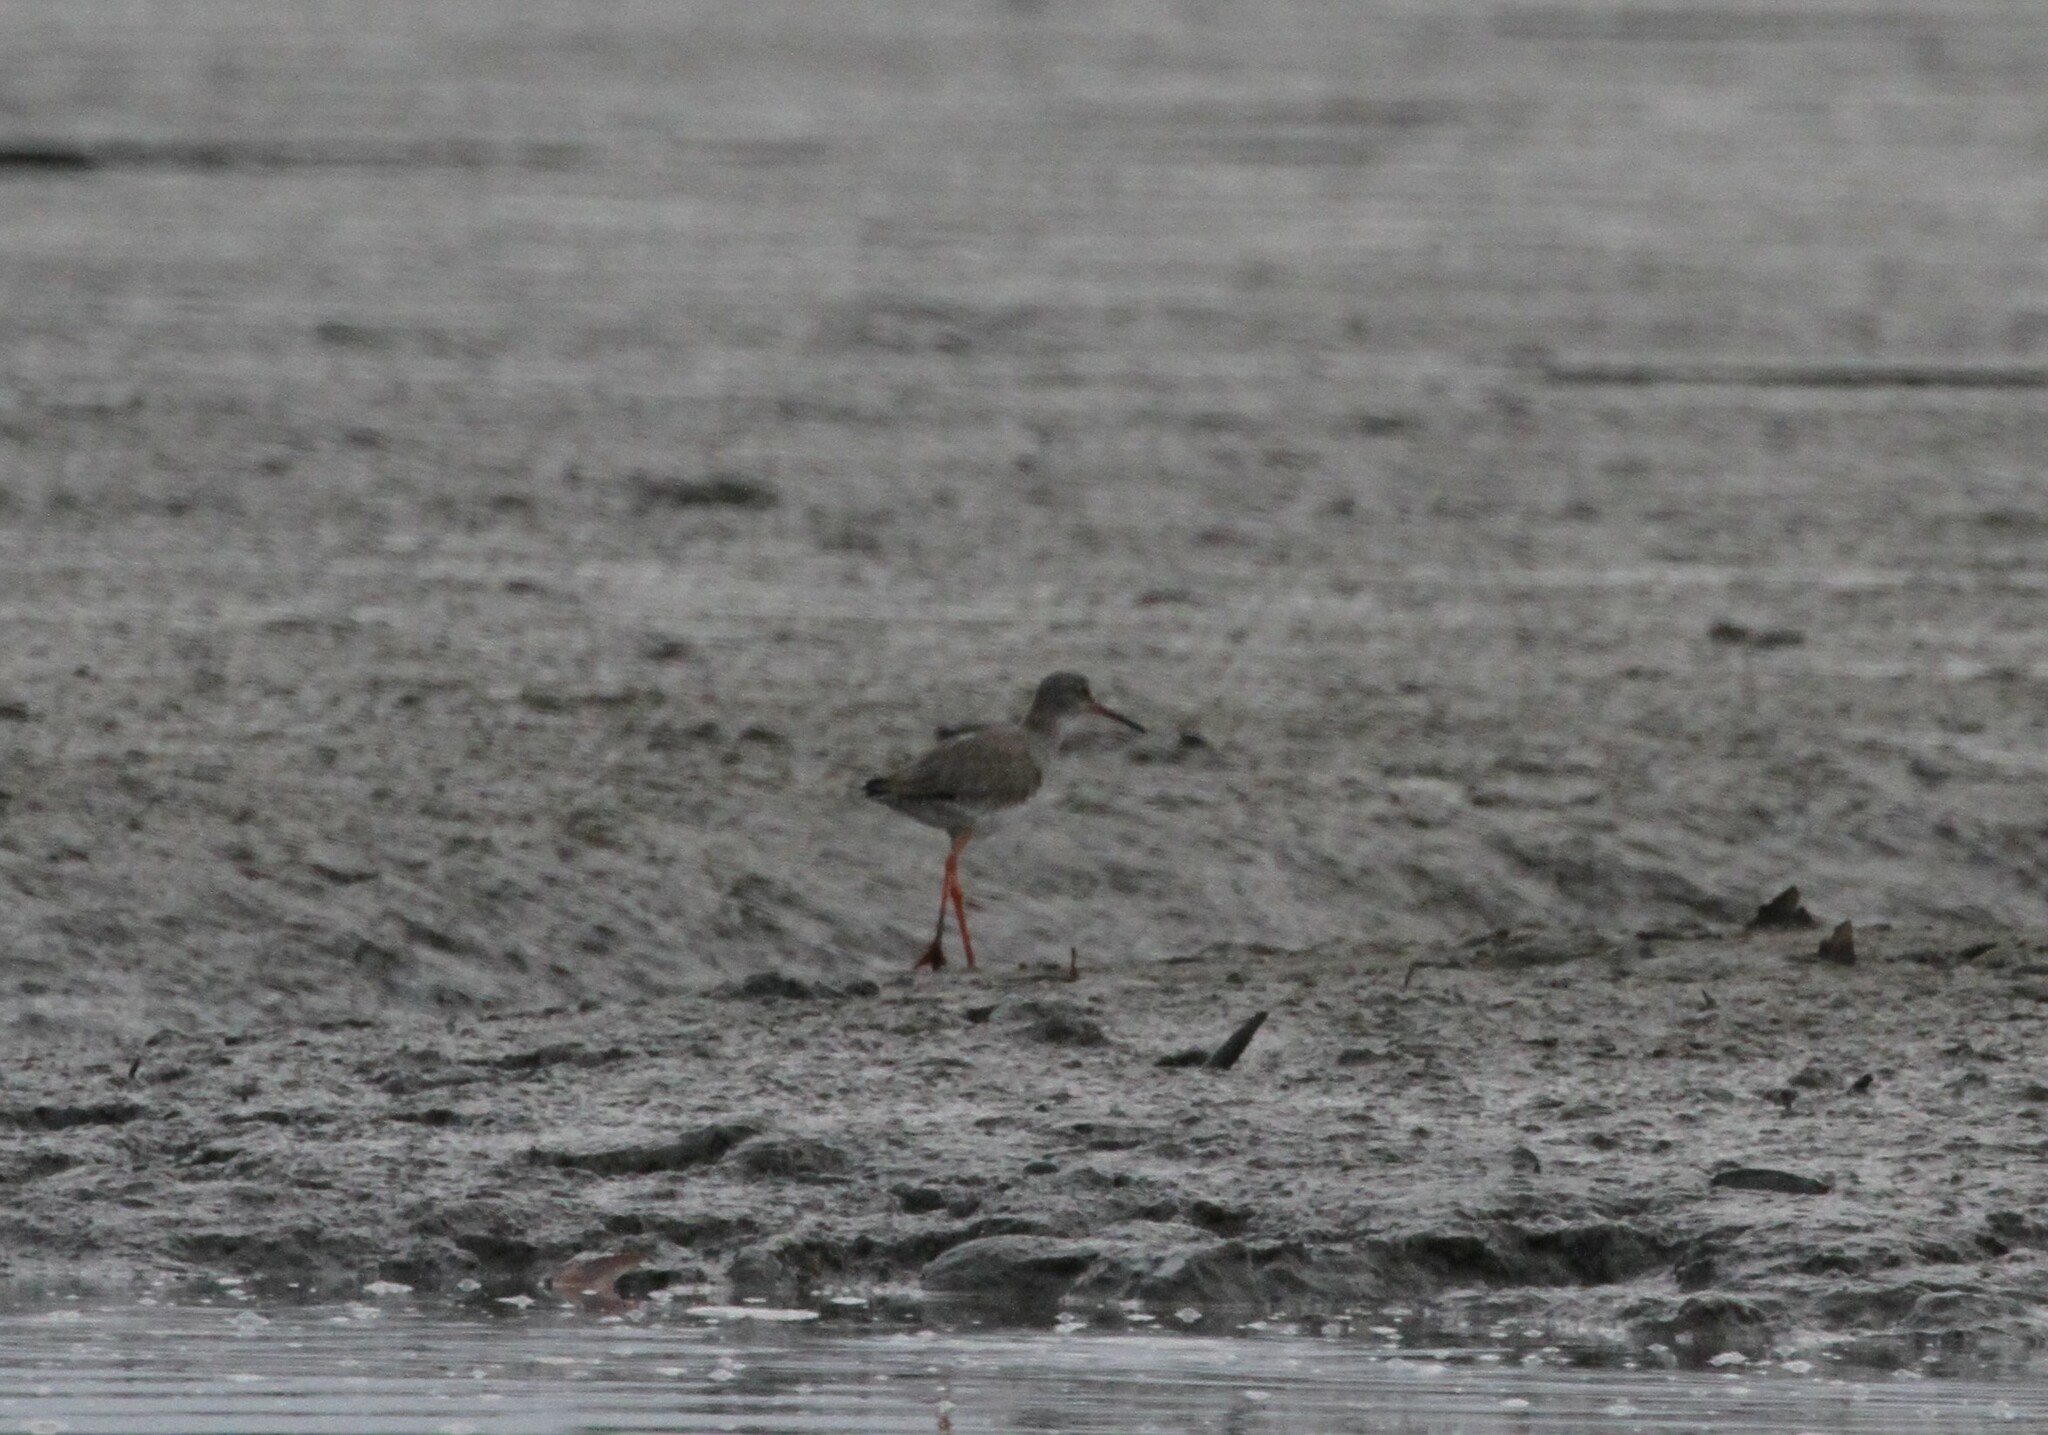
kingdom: Animalia
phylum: Chordata
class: Aves
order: Charadriiformes
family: Scolopacidae
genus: Tringa
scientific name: Tringa totanus
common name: Common redshank
